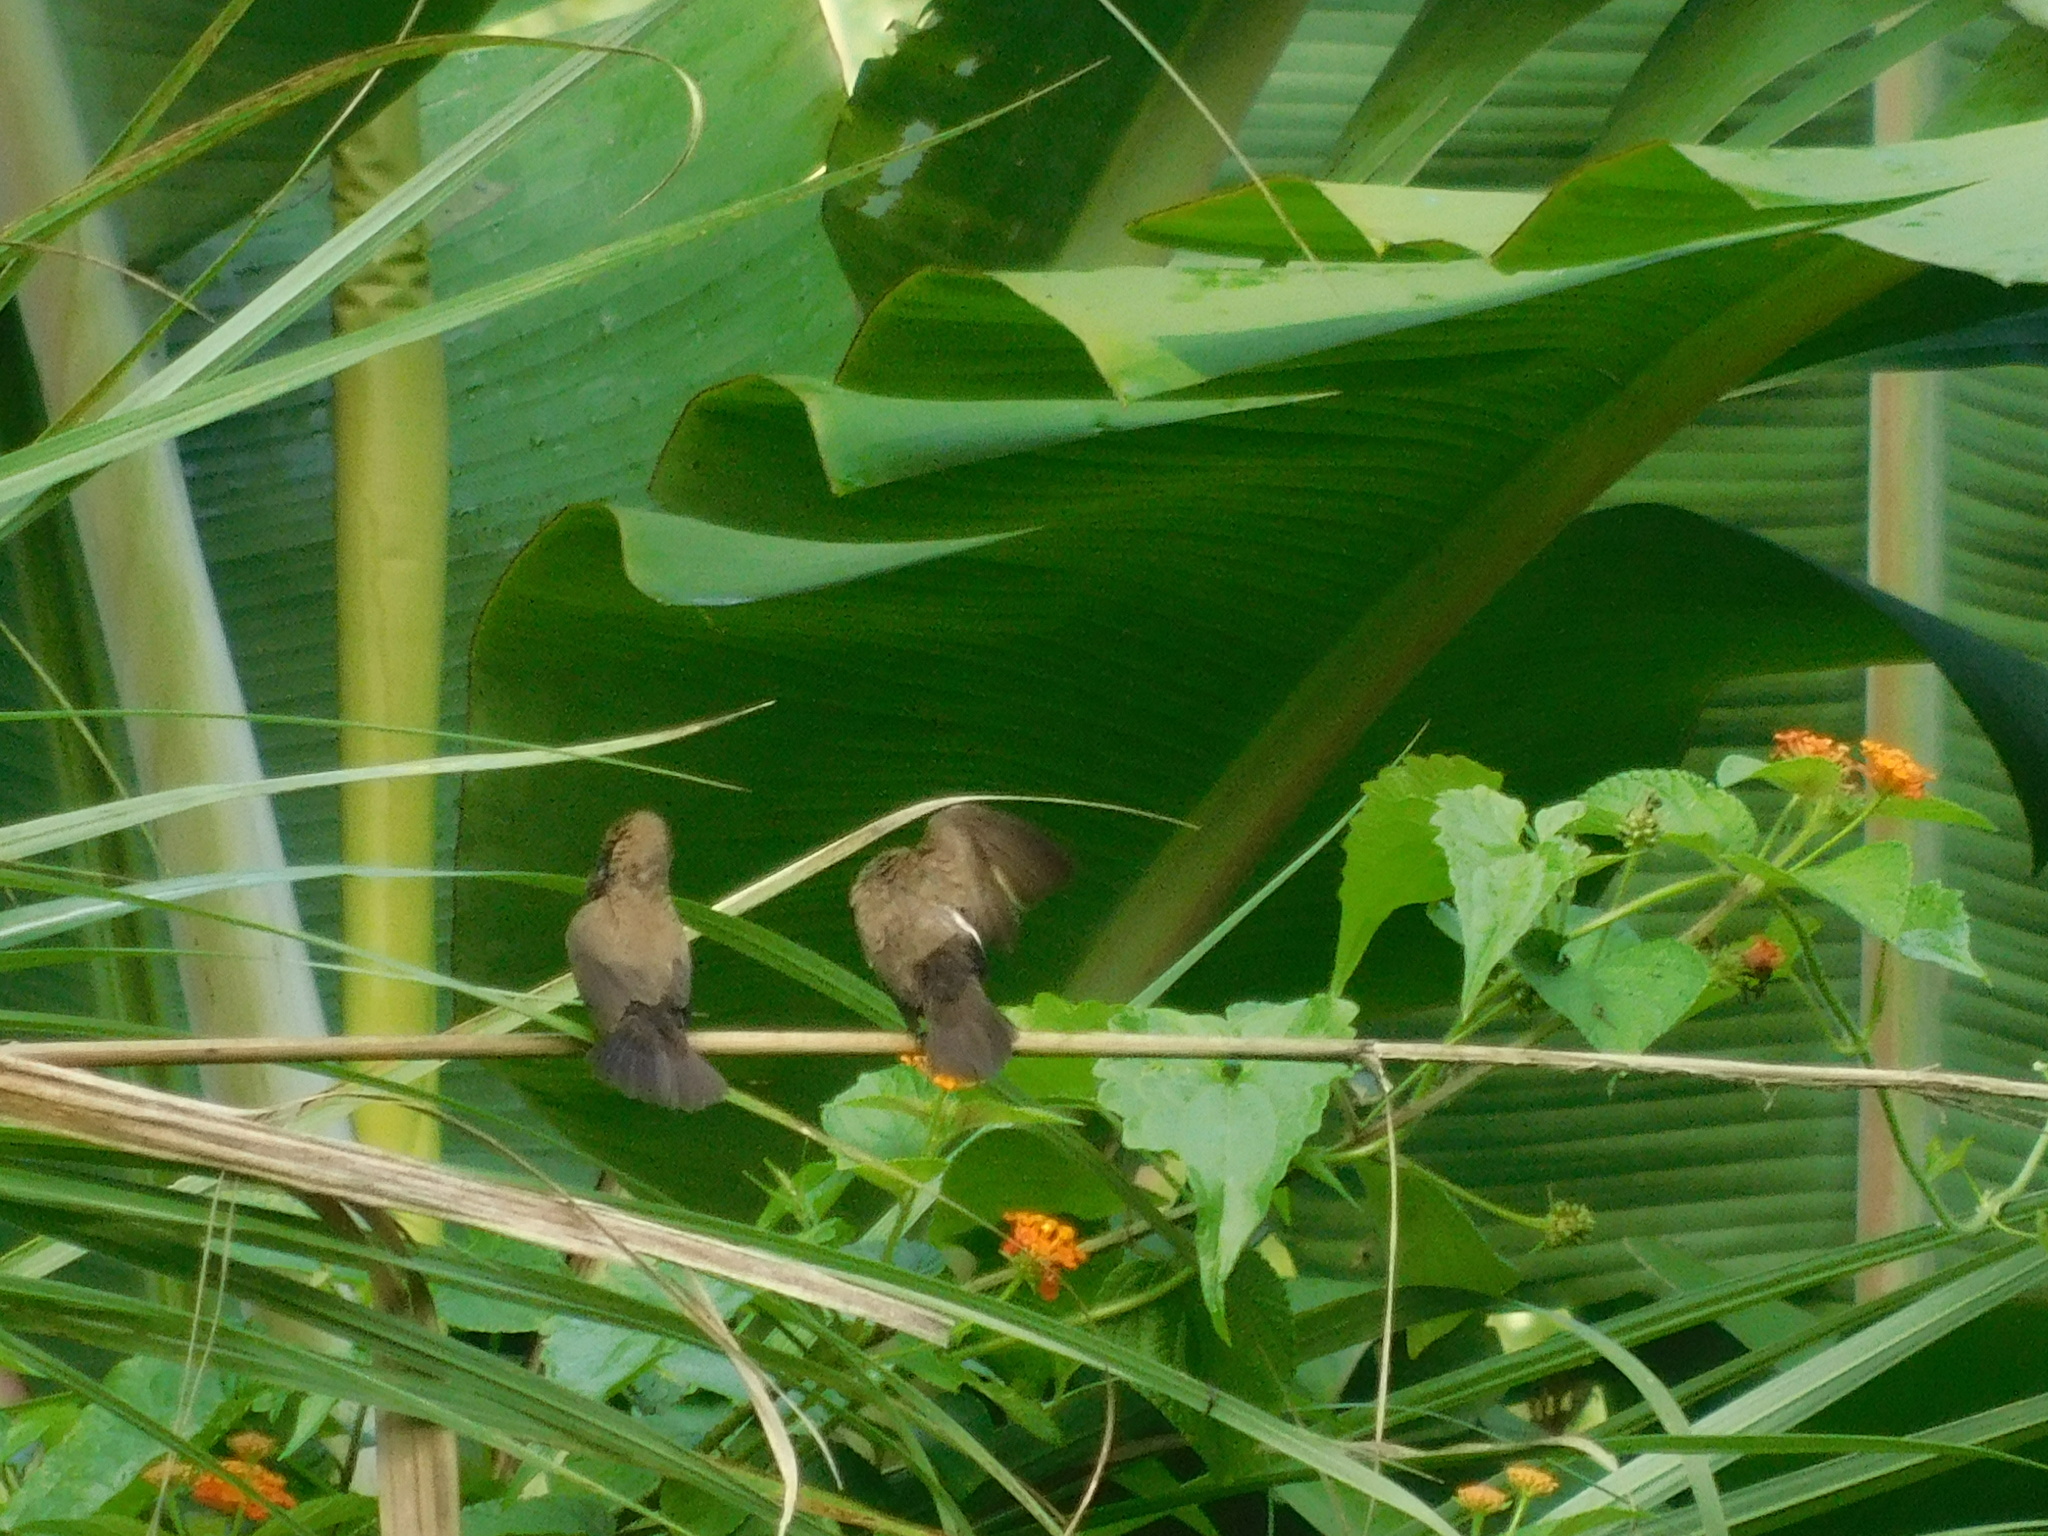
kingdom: Animalia
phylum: Chordata
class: Aves
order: Passeriformes
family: Estrildidae
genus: Lonchura
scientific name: Lonchura leucogastroides
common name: Javan munia
